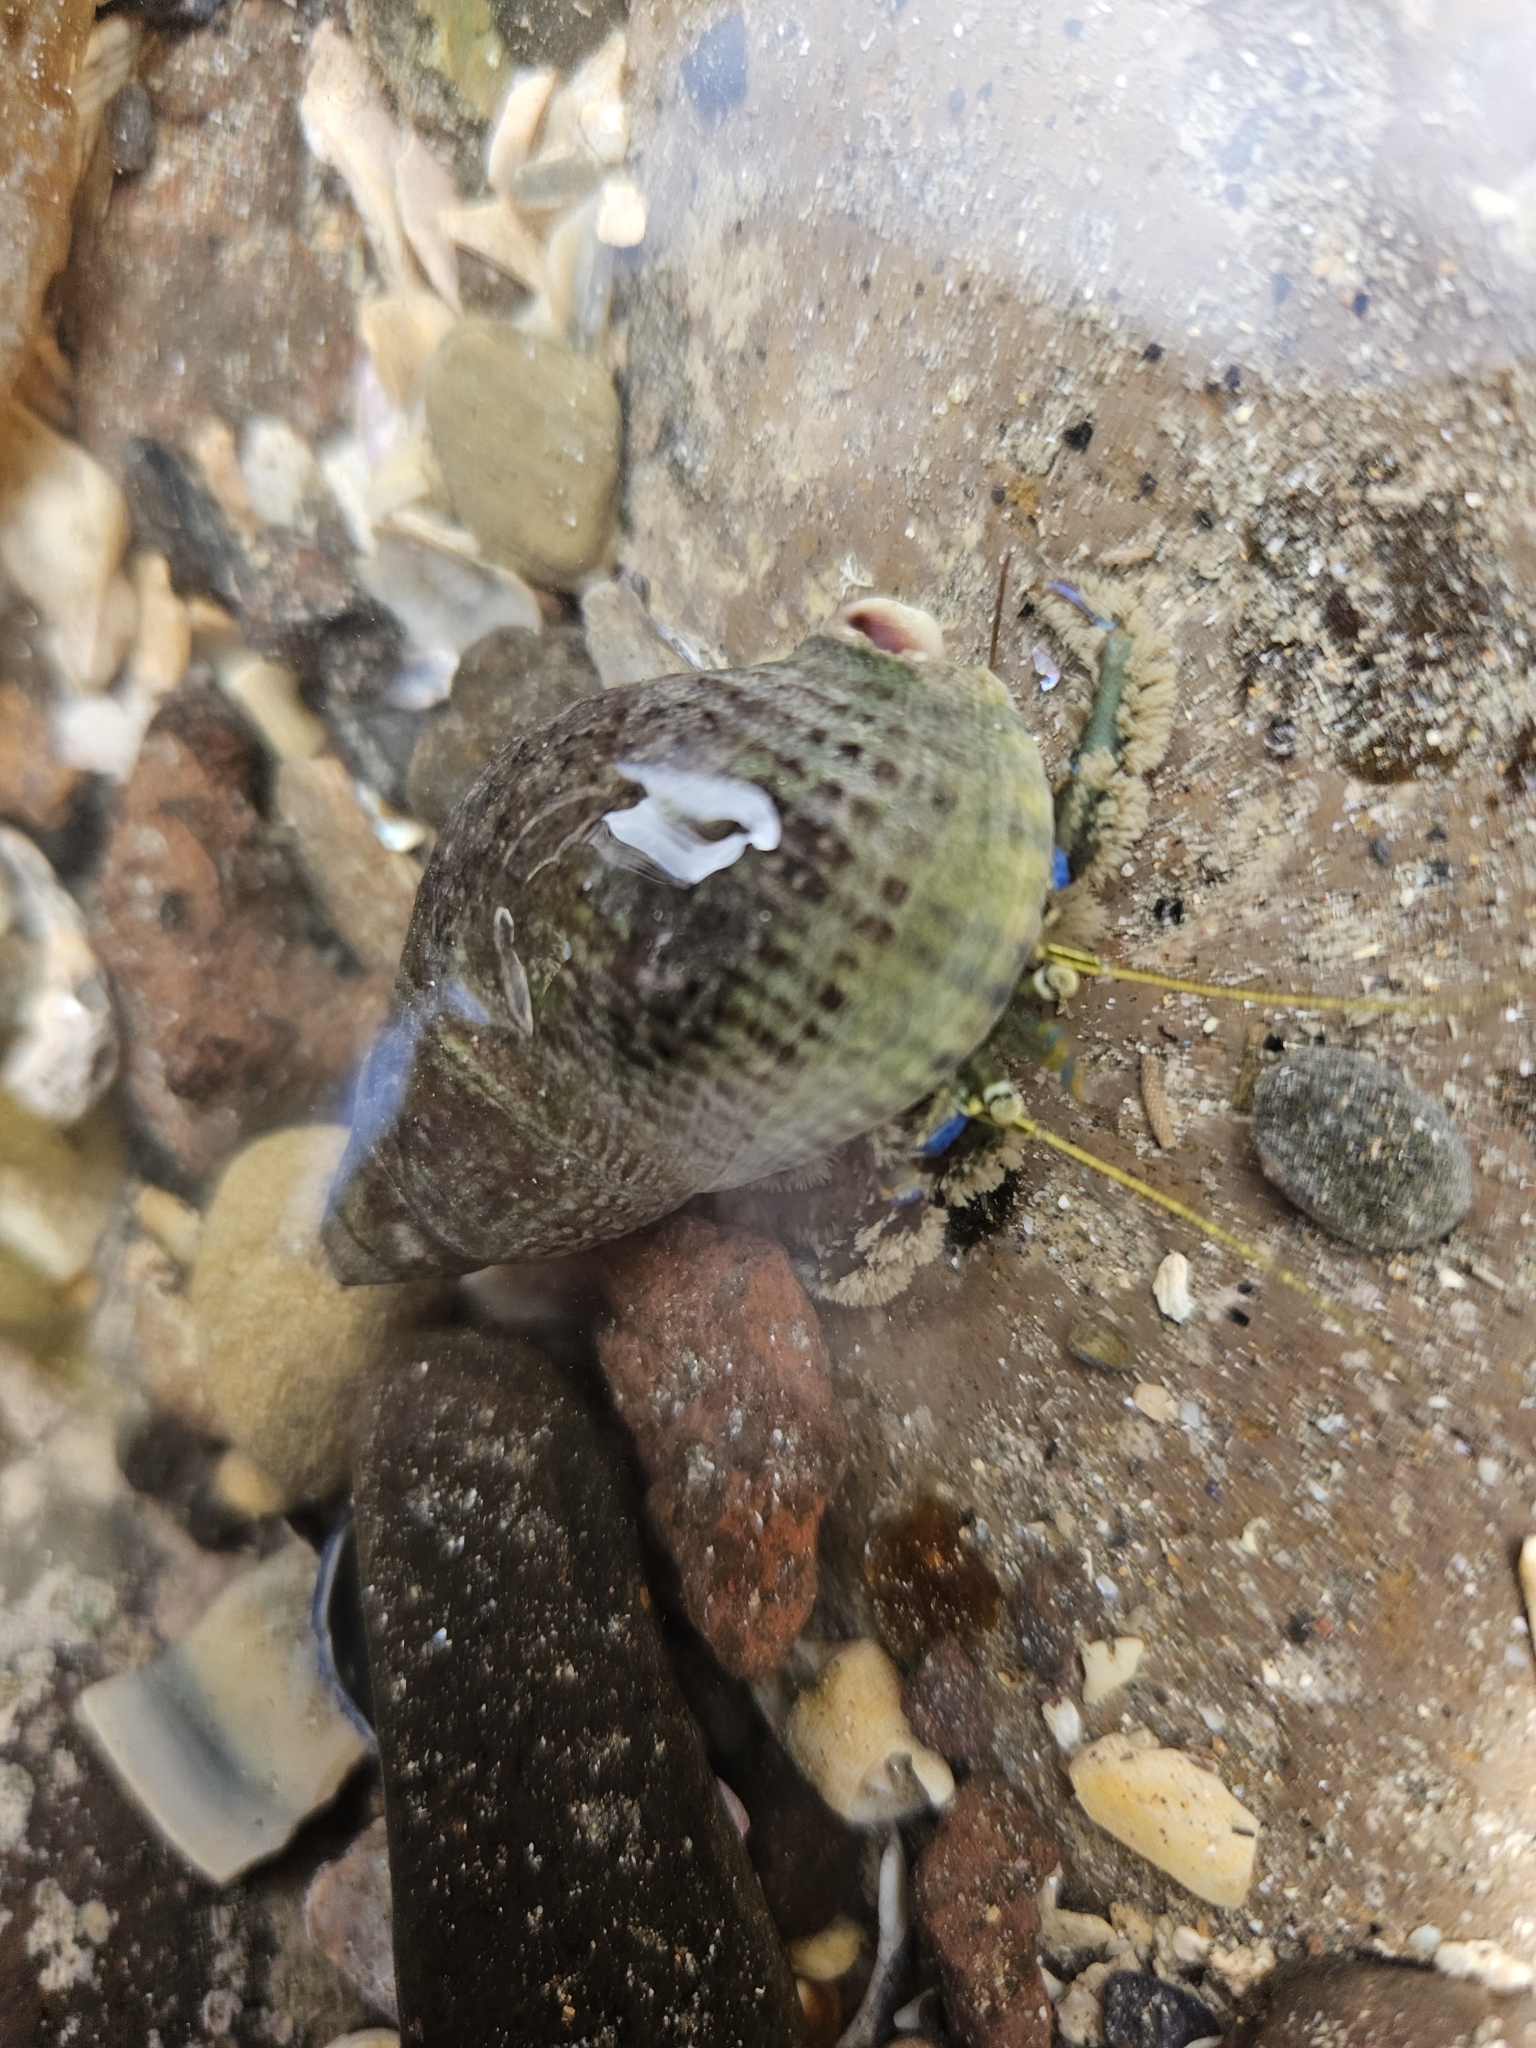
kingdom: Animalia
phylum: Arthropoda
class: Malacostraca
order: Decapoda
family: Paguridae
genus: Pagurus
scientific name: Pagurus novizealandiae
